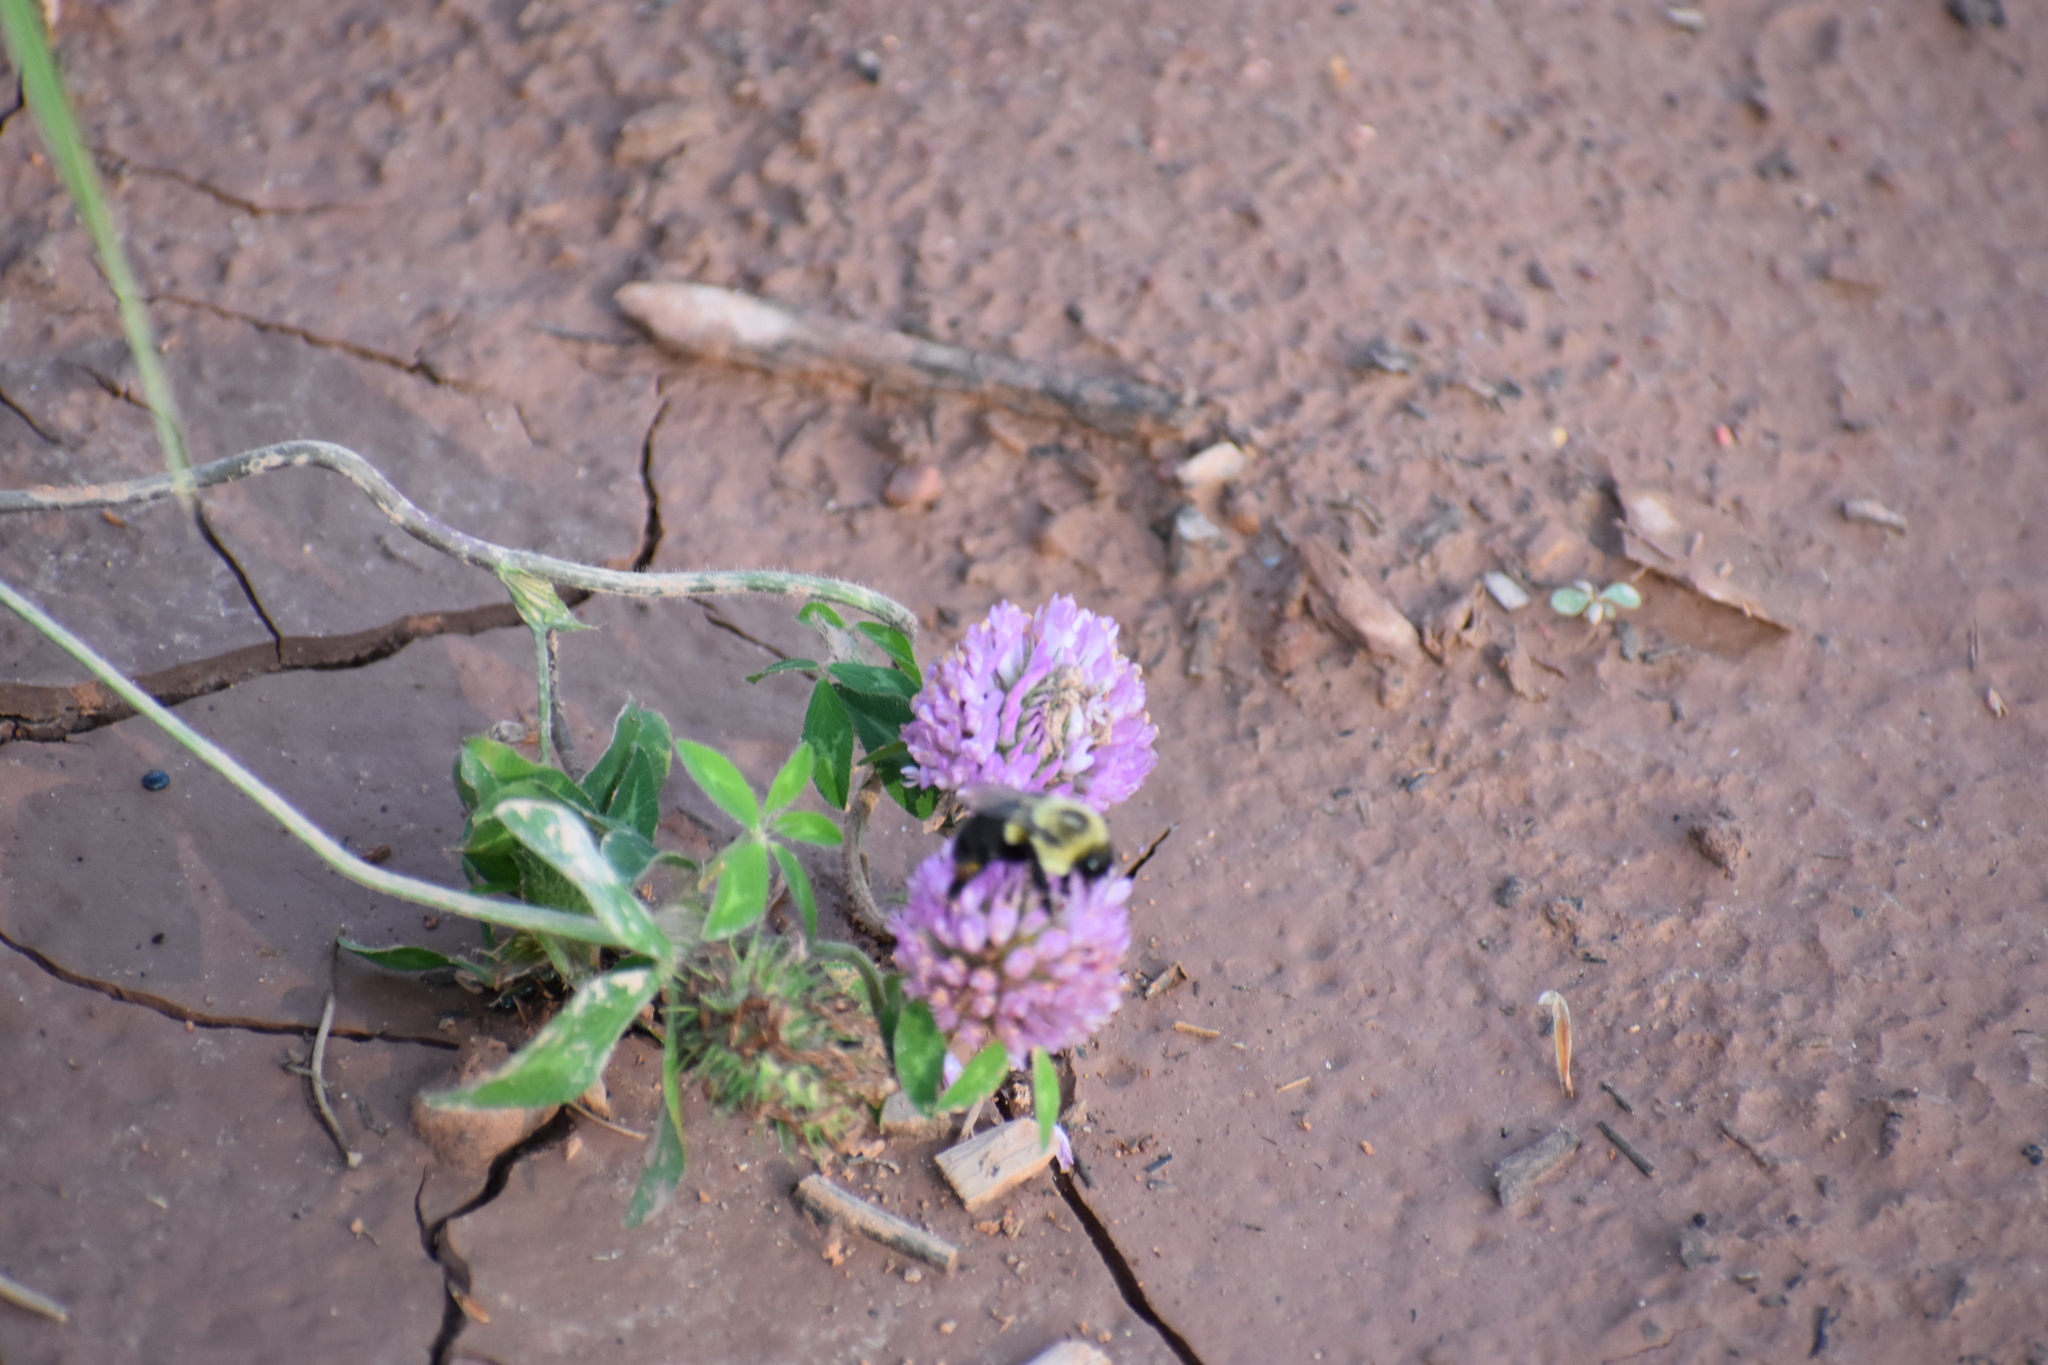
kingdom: Animalia
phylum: Arthropoda
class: Insecta
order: Hymenoptera
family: Apidae
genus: Bombus
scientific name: Bombus impatiens
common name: Common eastern bumble bee
